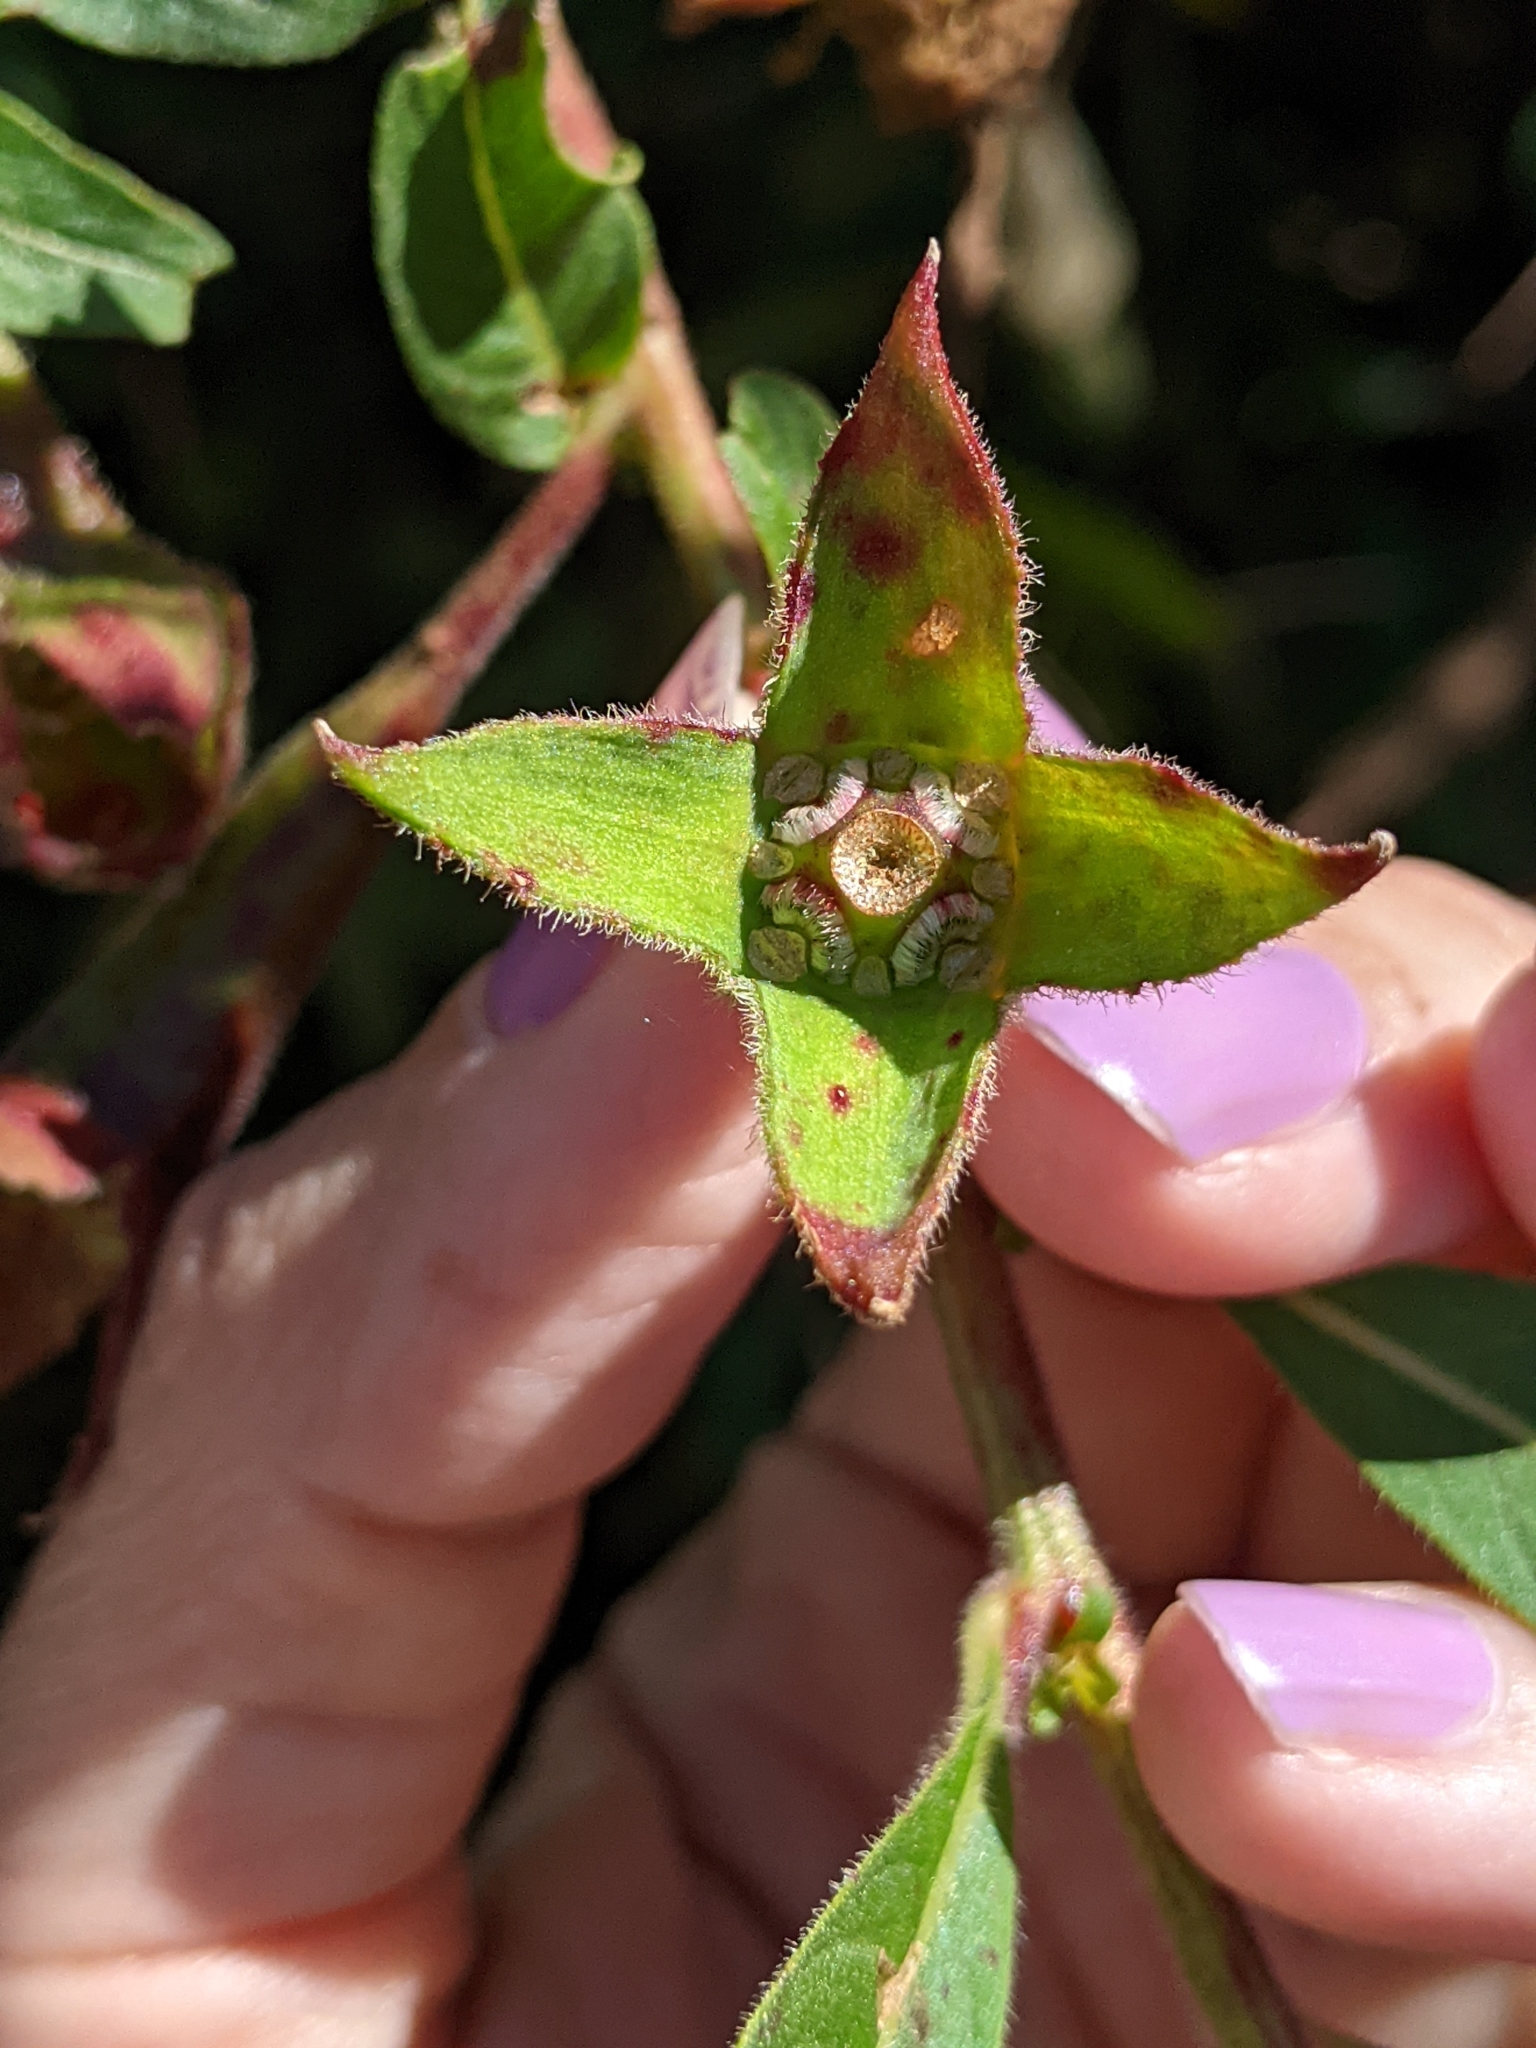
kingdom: Plantae
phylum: Tracheophyta
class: Magnoliopsida
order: Myrtales
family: Onagraceae
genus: Ludwigia
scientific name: Ludwigia peruviana
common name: Peruvian primrose-willow
